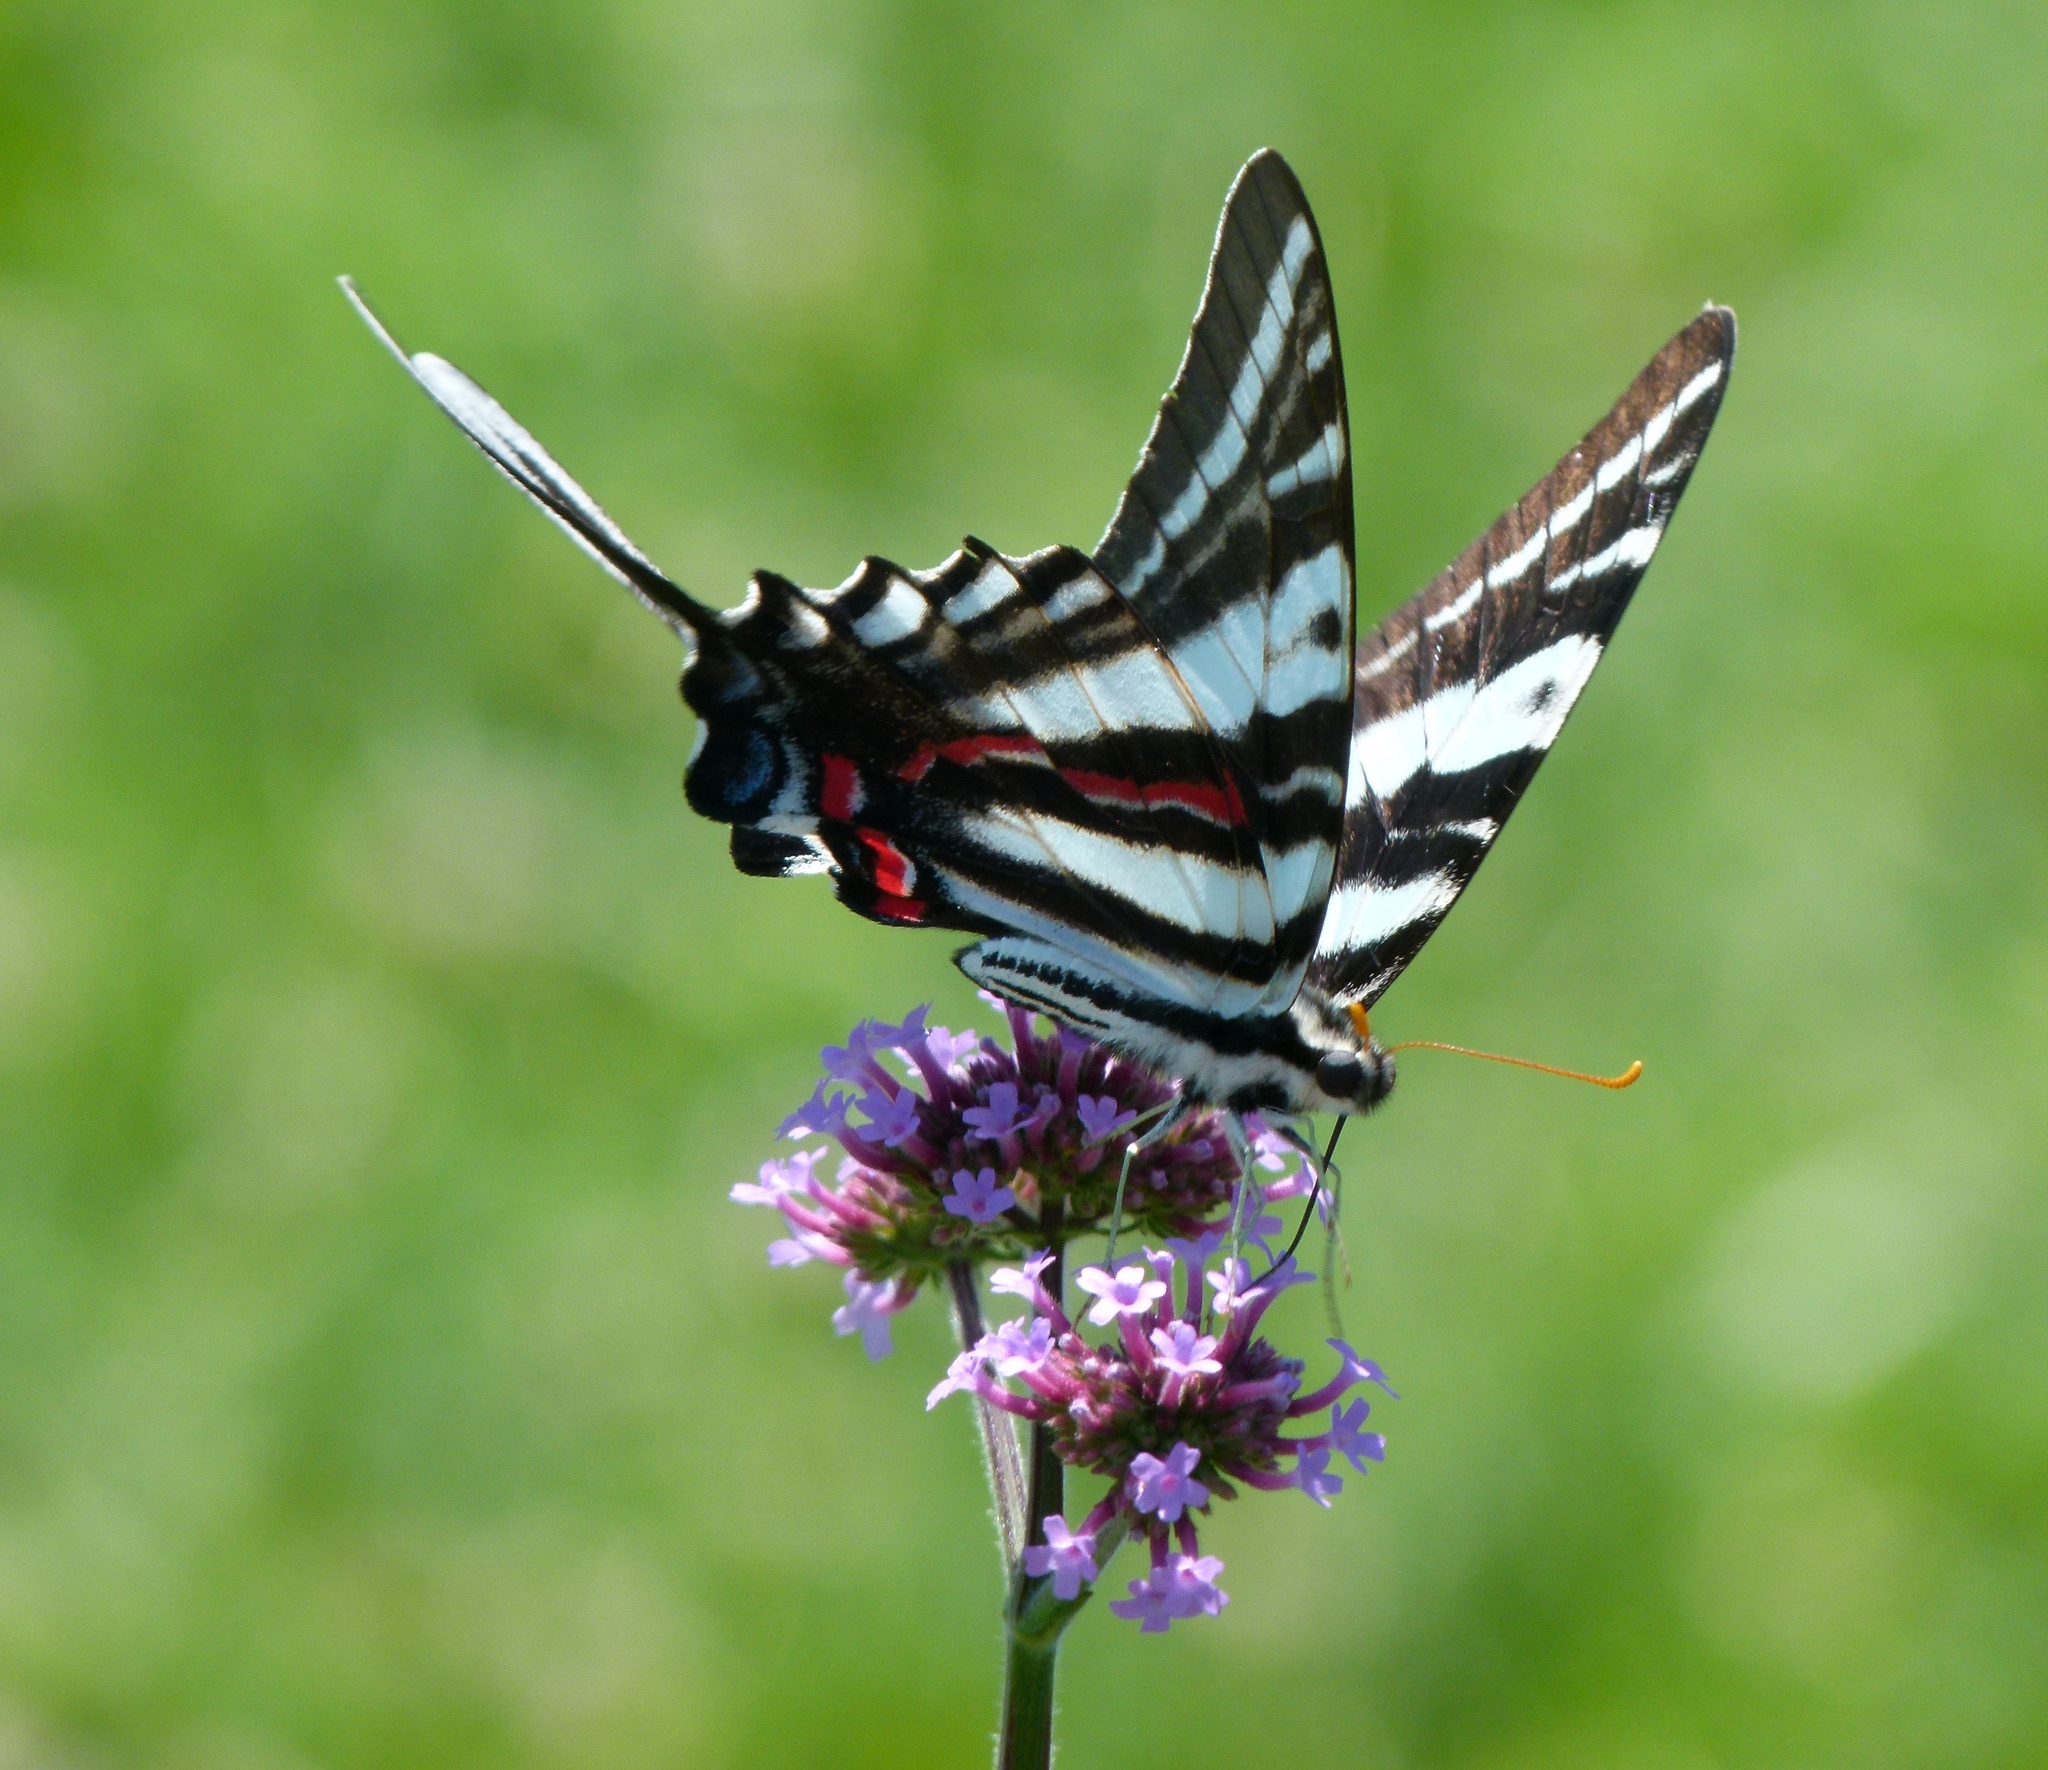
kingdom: Animalia
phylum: Arthropoda
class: Insecta
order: Lepidoptera
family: Papilionidae
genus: Protographium
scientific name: Protographium marcellus
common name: Zebra swallowtail
